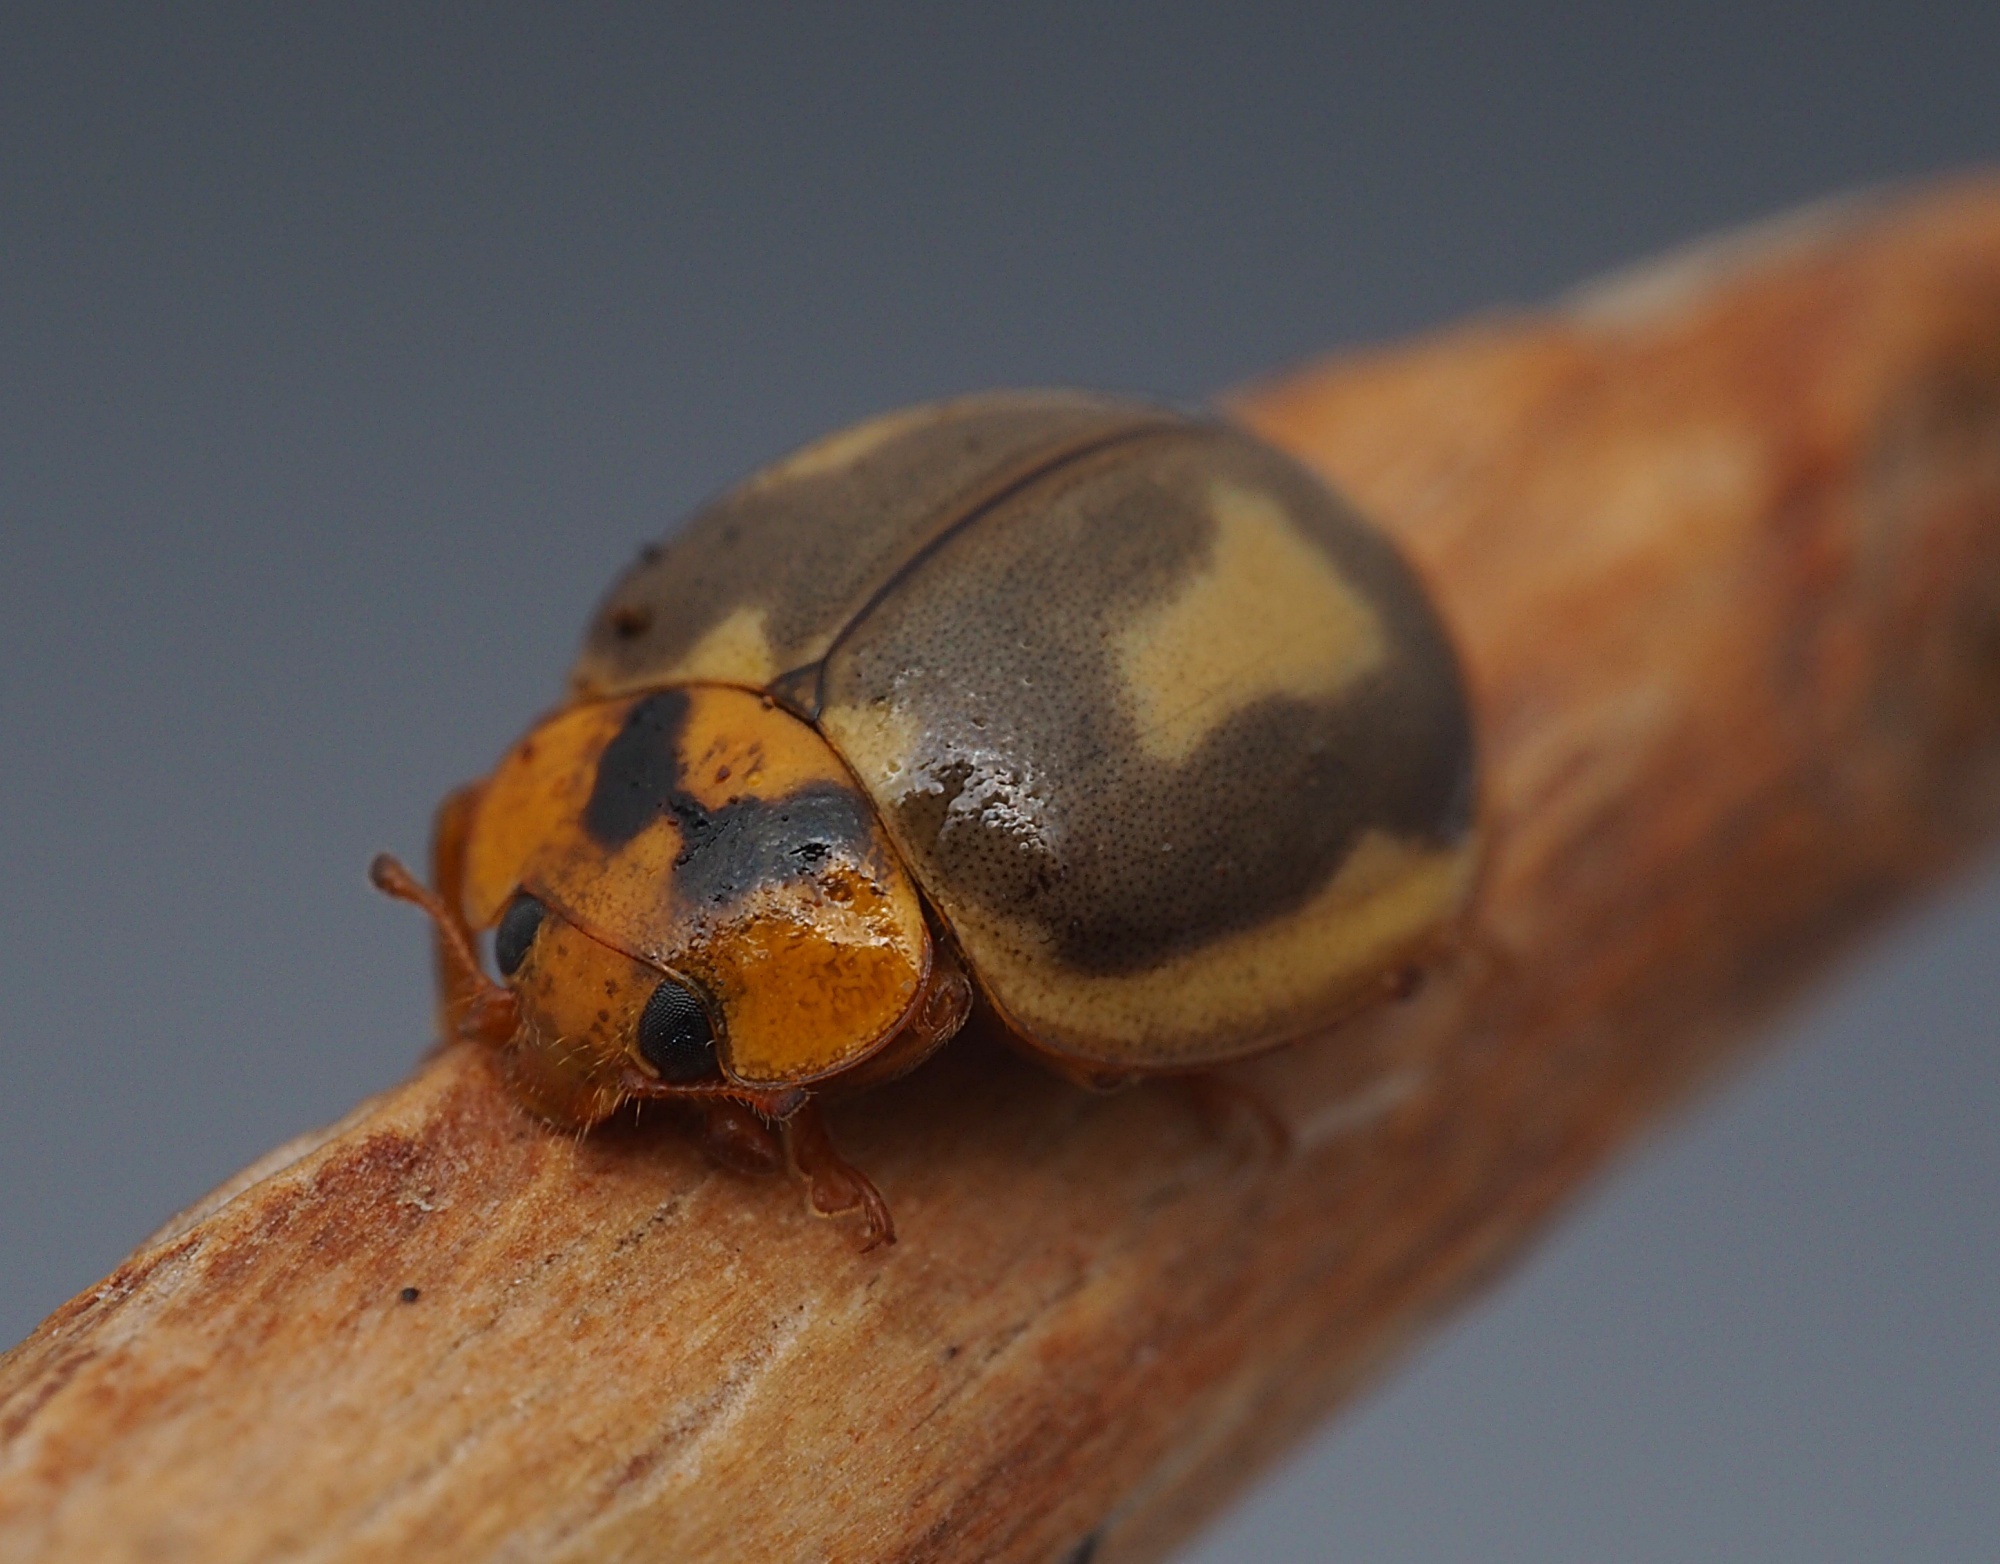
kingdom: Animalia
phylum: Arthropoda
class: Insecta
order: Coleoptera
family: Coccinellidae
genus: Harmonia
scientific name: Harmonia
